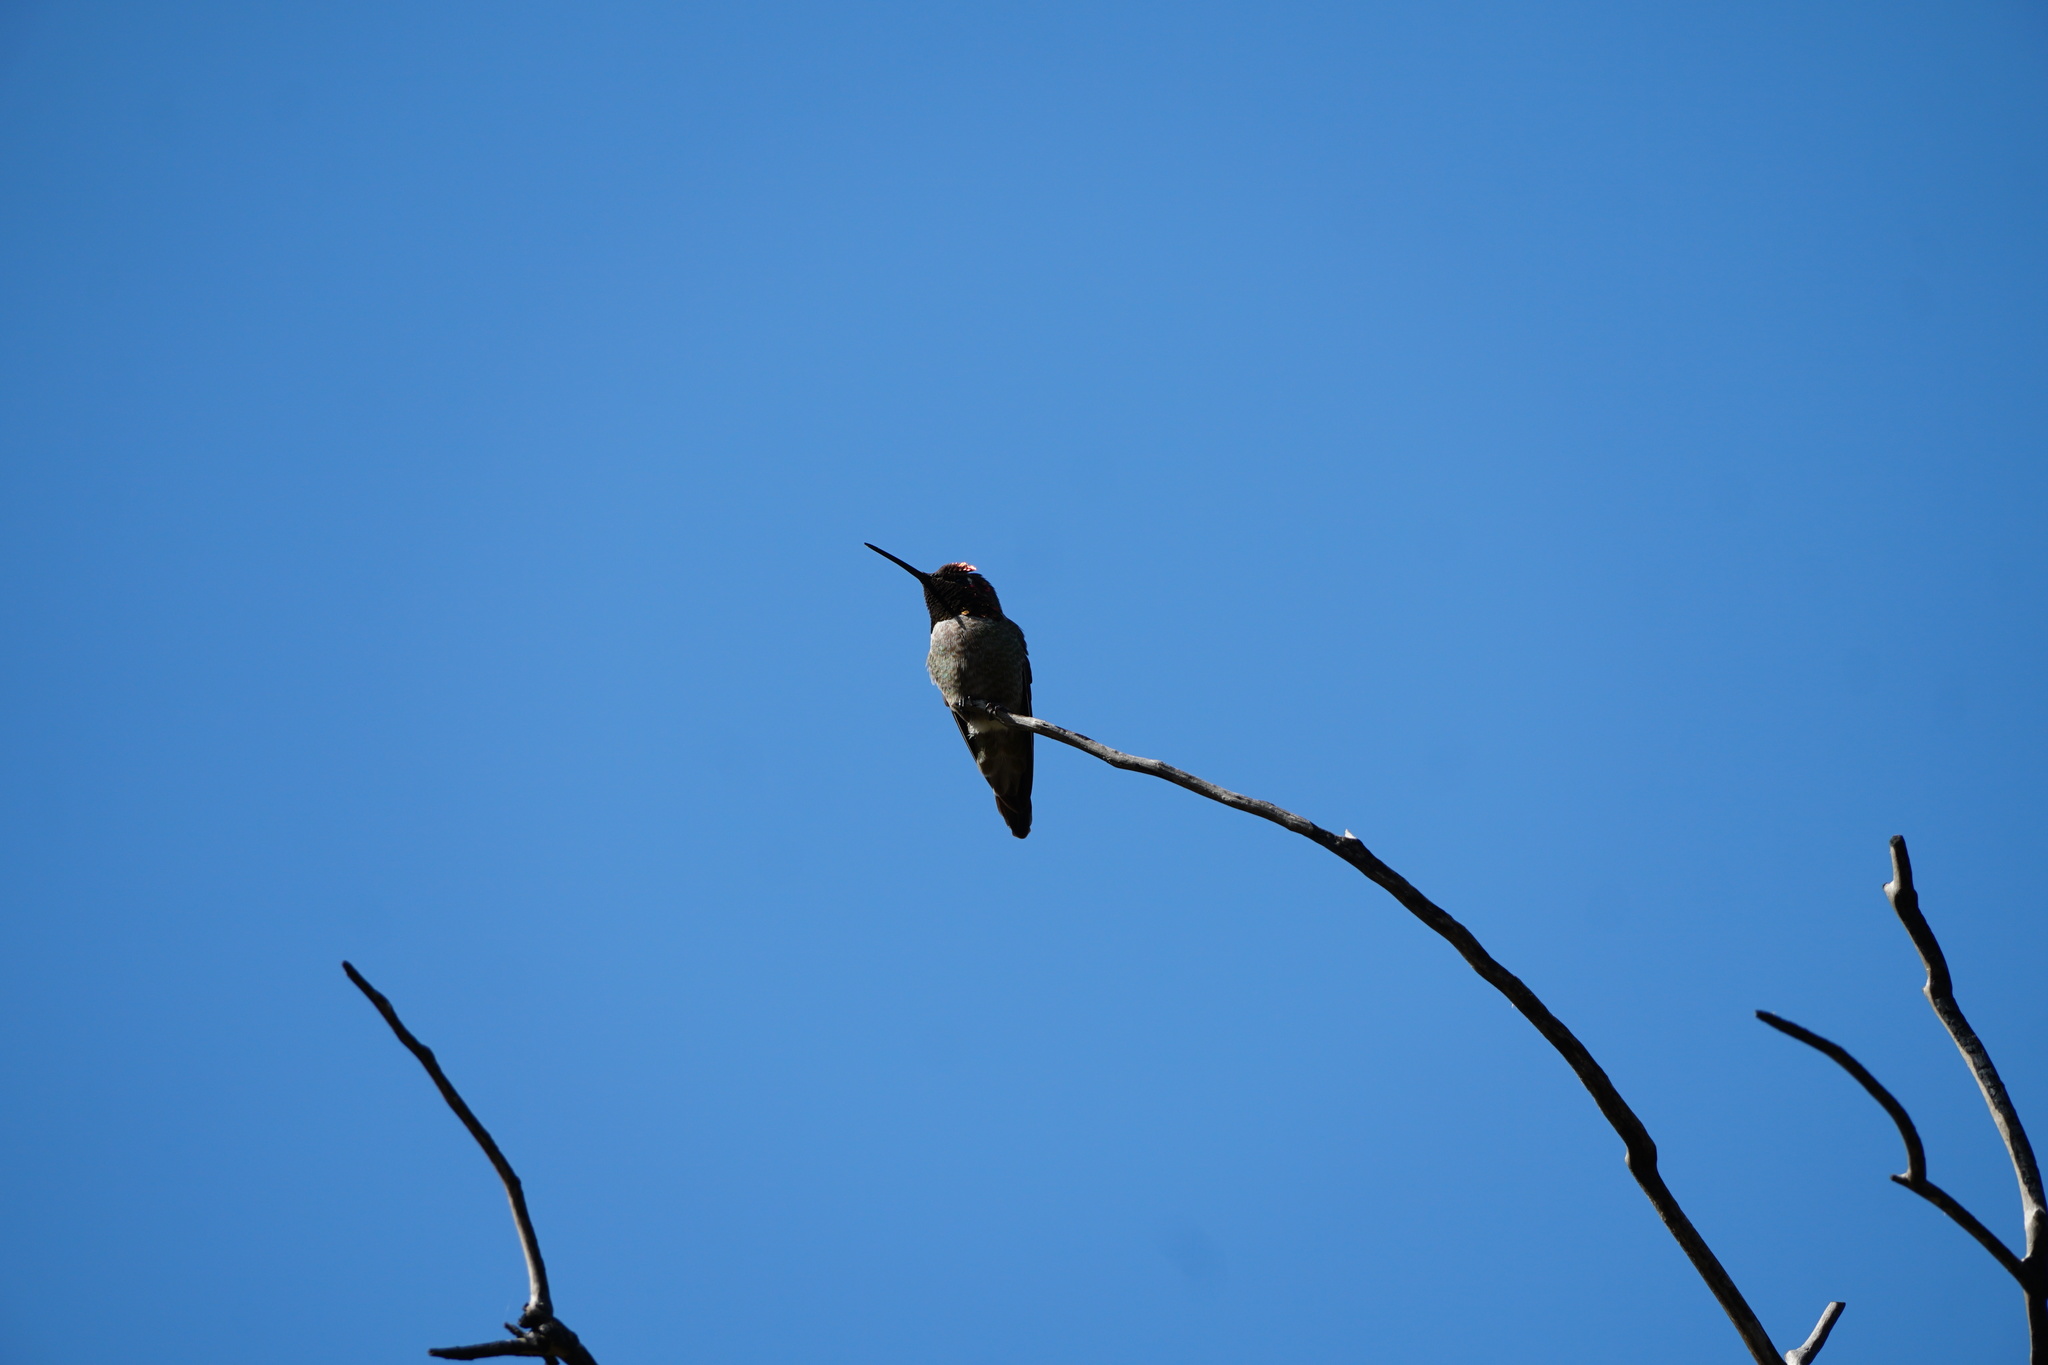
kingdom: Animalia
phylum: Chordata
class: Aves
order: Apodiformes
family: Trochilidae
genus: Calypte
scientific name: Calypte anna
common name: Anna's hummingbird
